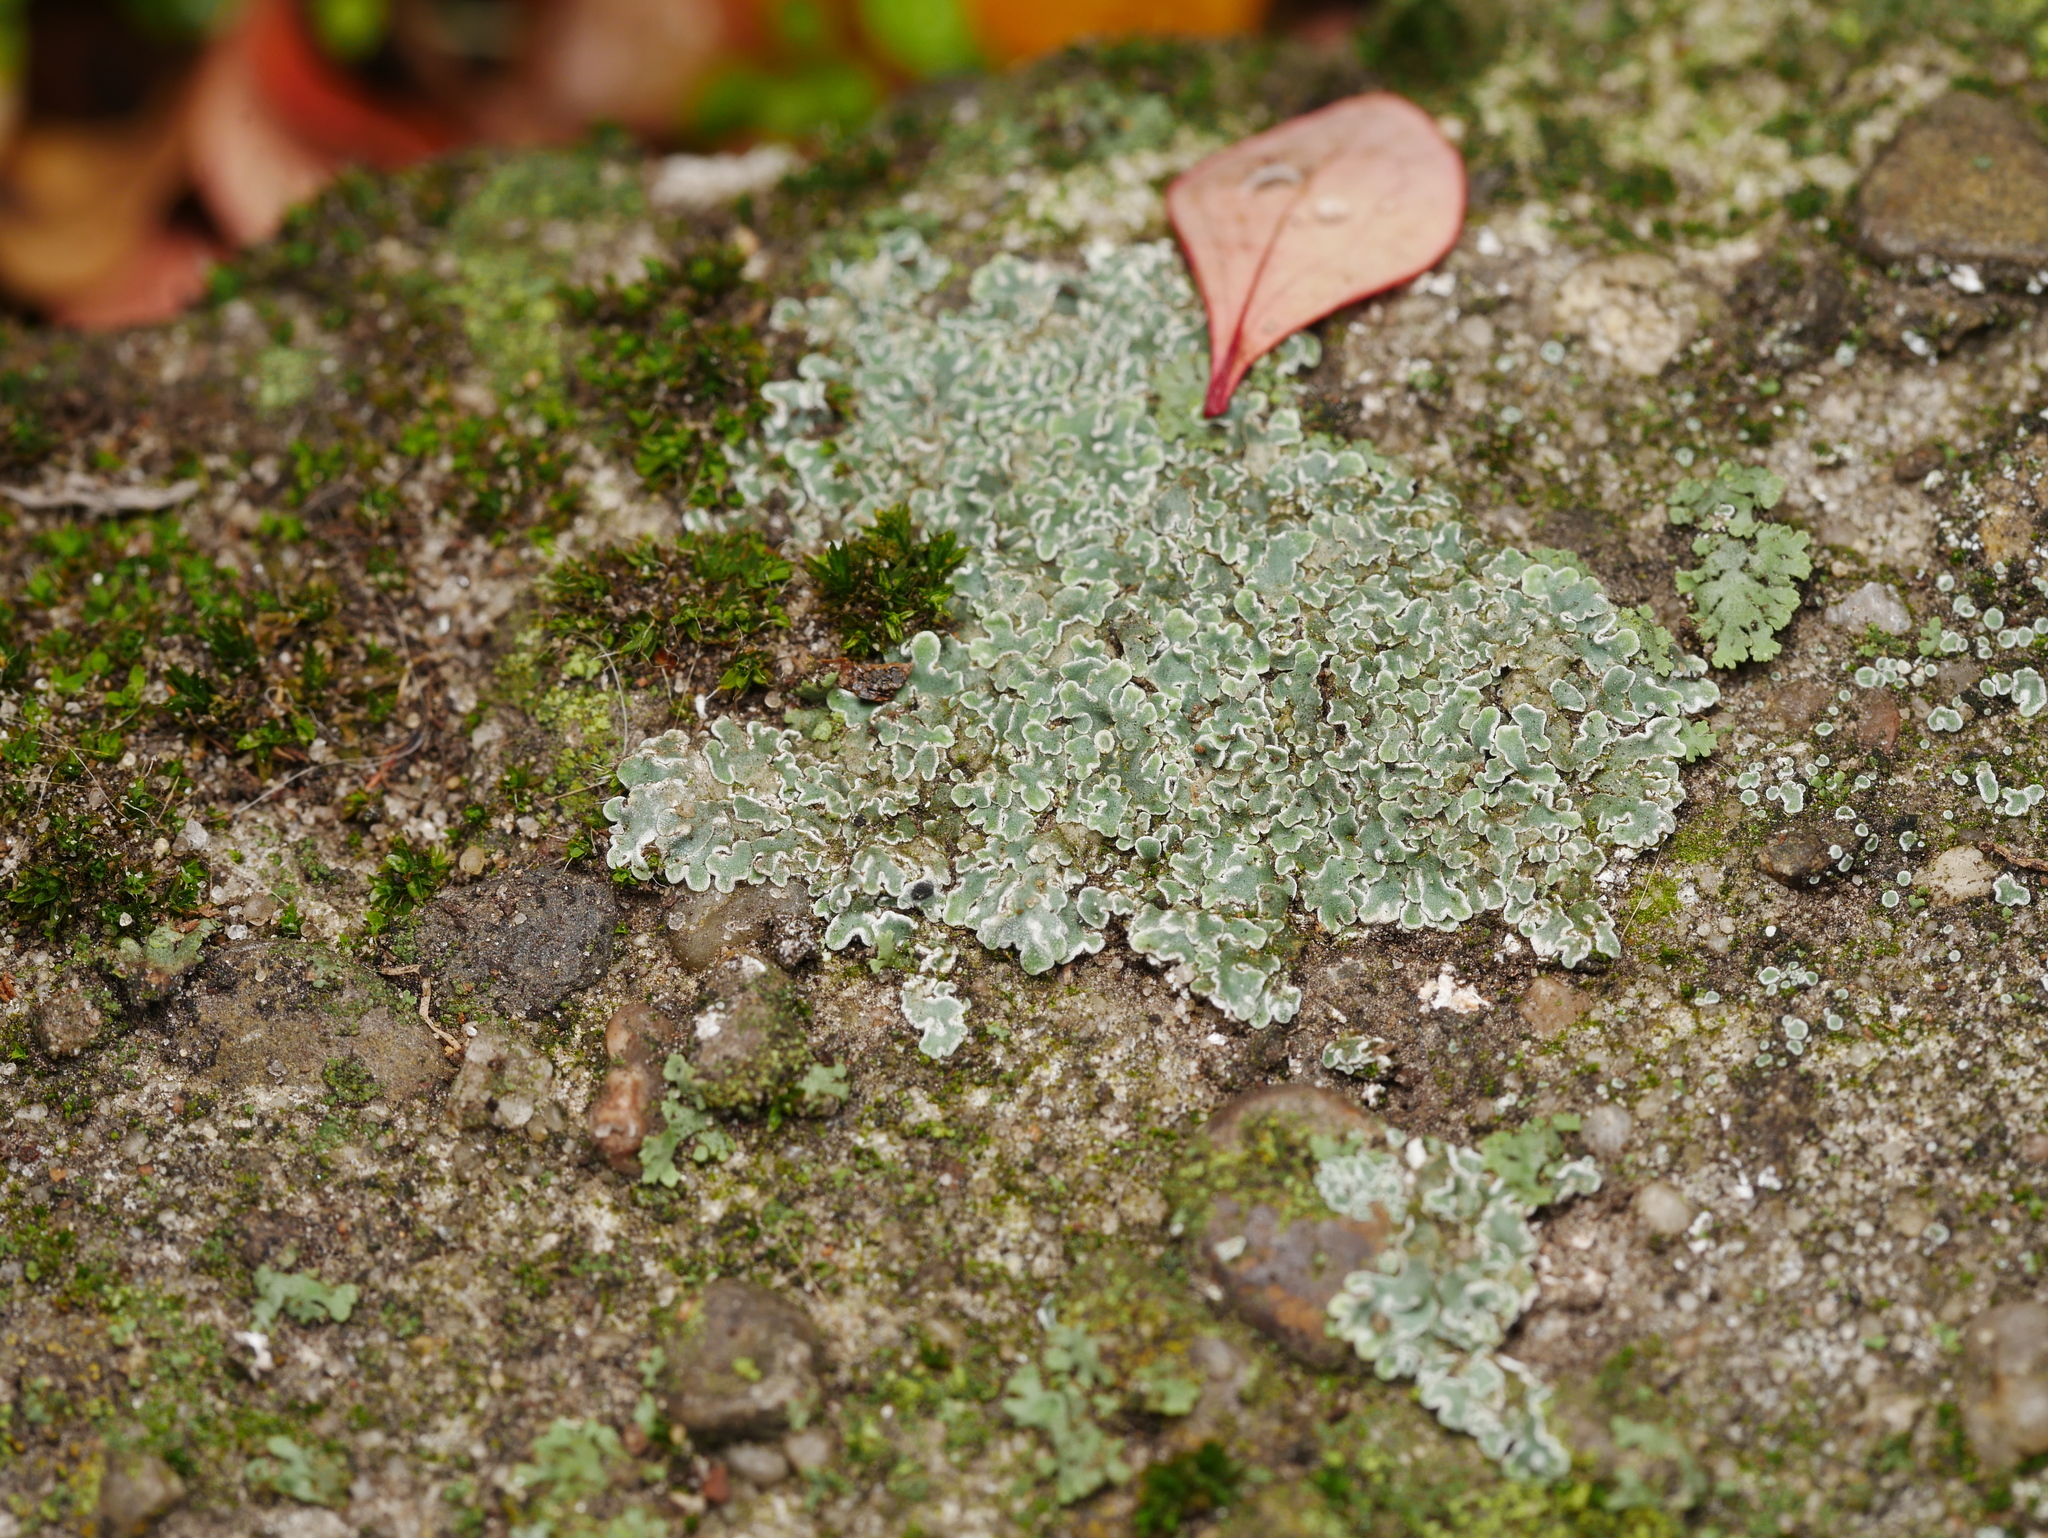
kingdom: Fungi
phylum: Ascomycota
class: Lecanoromycetes
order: Lecanorales
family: Lecanoraceae
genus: Protoparmeliopsis
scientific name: Protoparmeliopsis muralis
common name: Stonewall rim lichen
